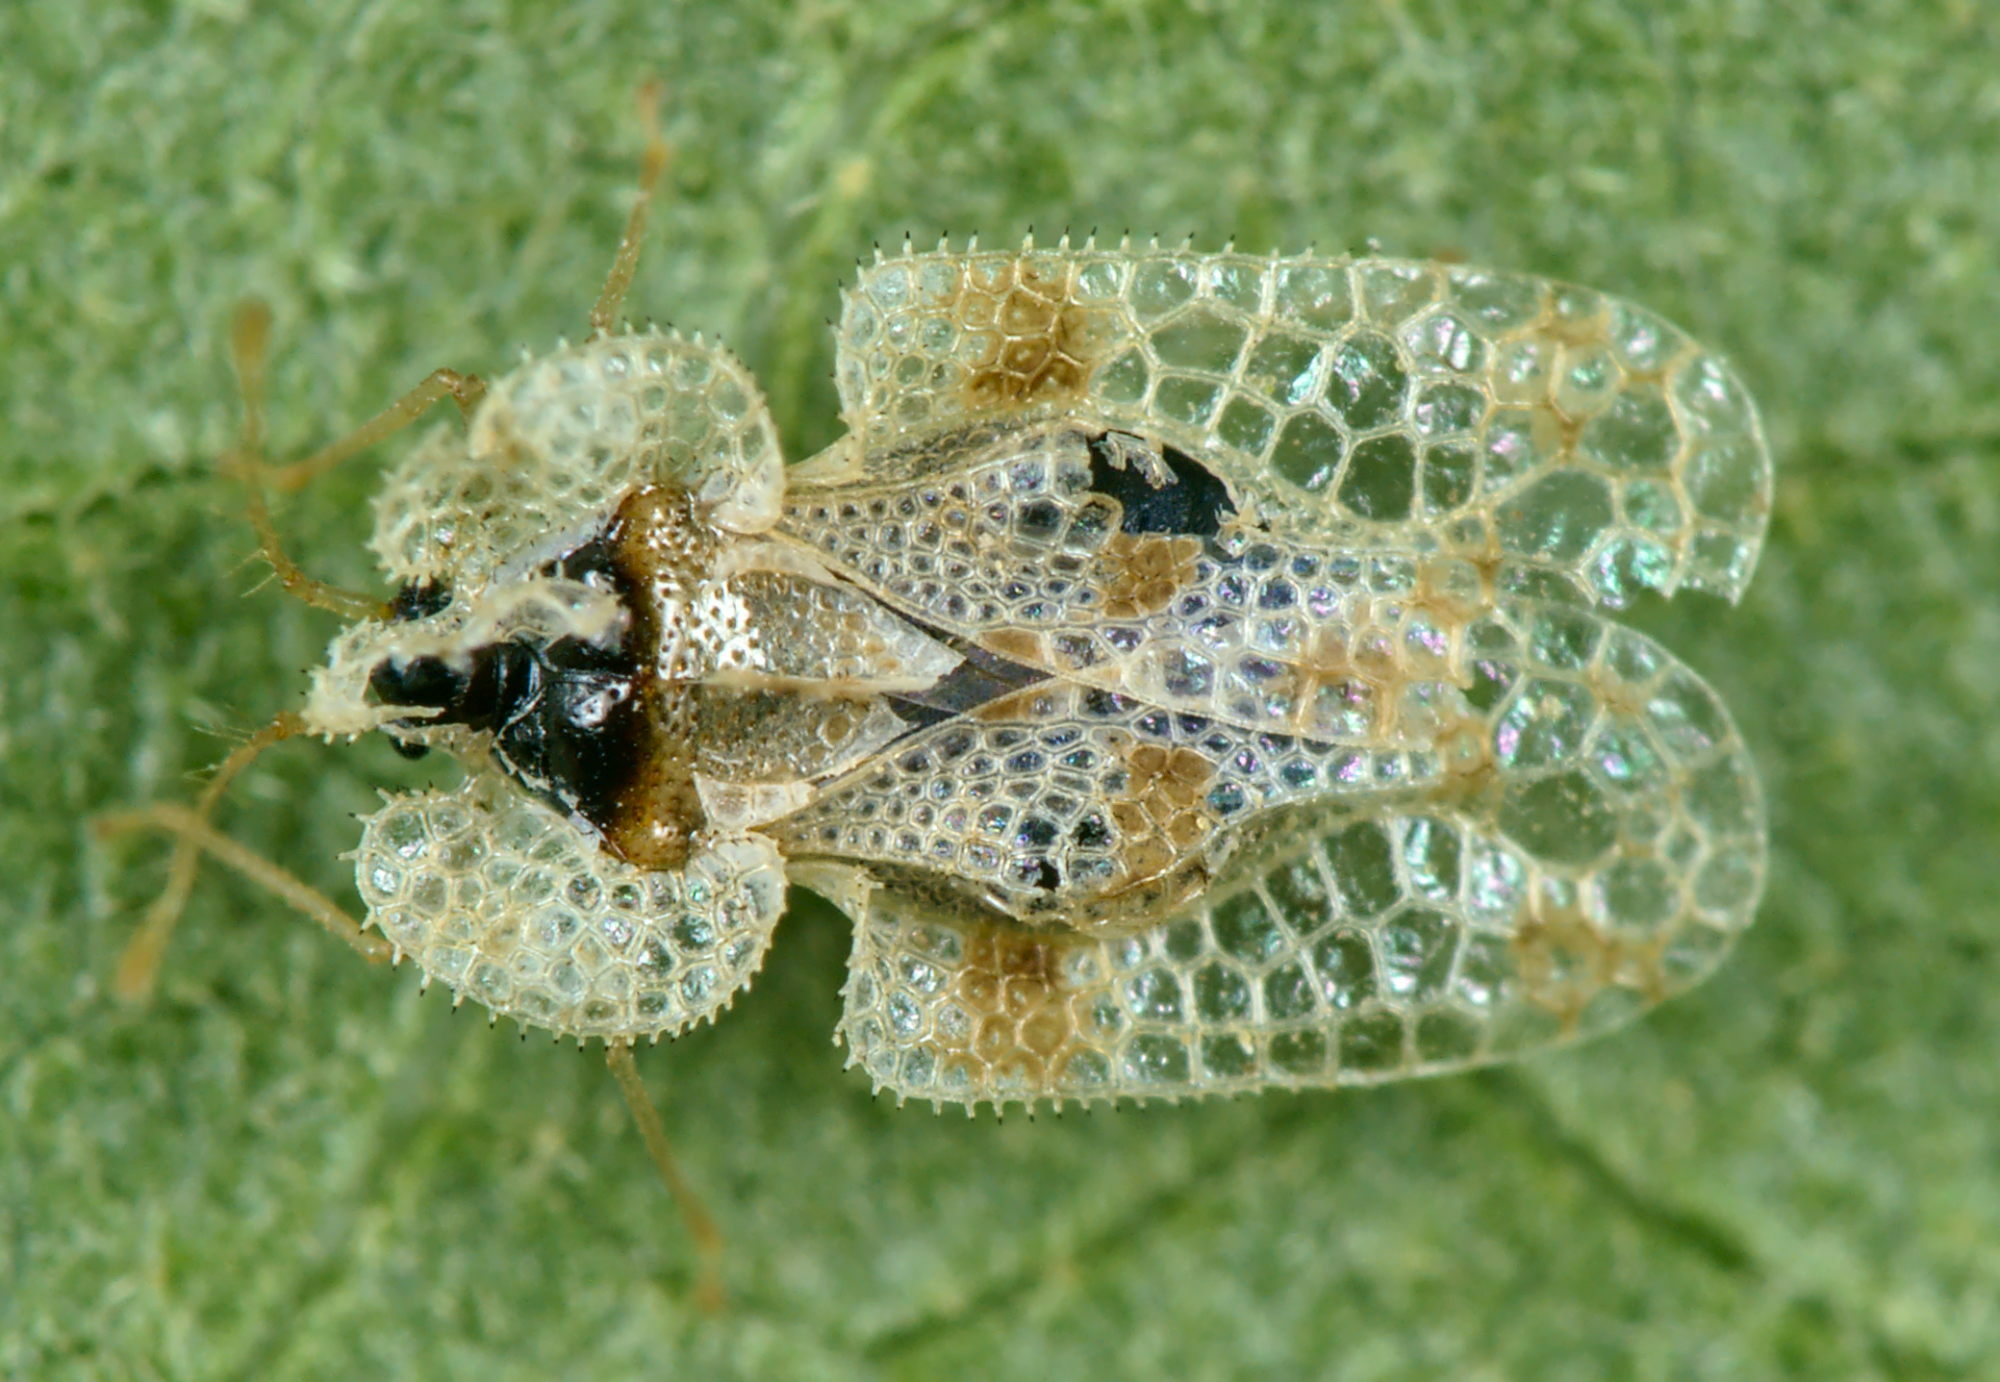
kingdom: Animalia
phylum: Arthropoda
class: Insecta
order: Hemiptera
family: Tingidae
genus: Corythucha
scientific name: Corythucha arcuata
